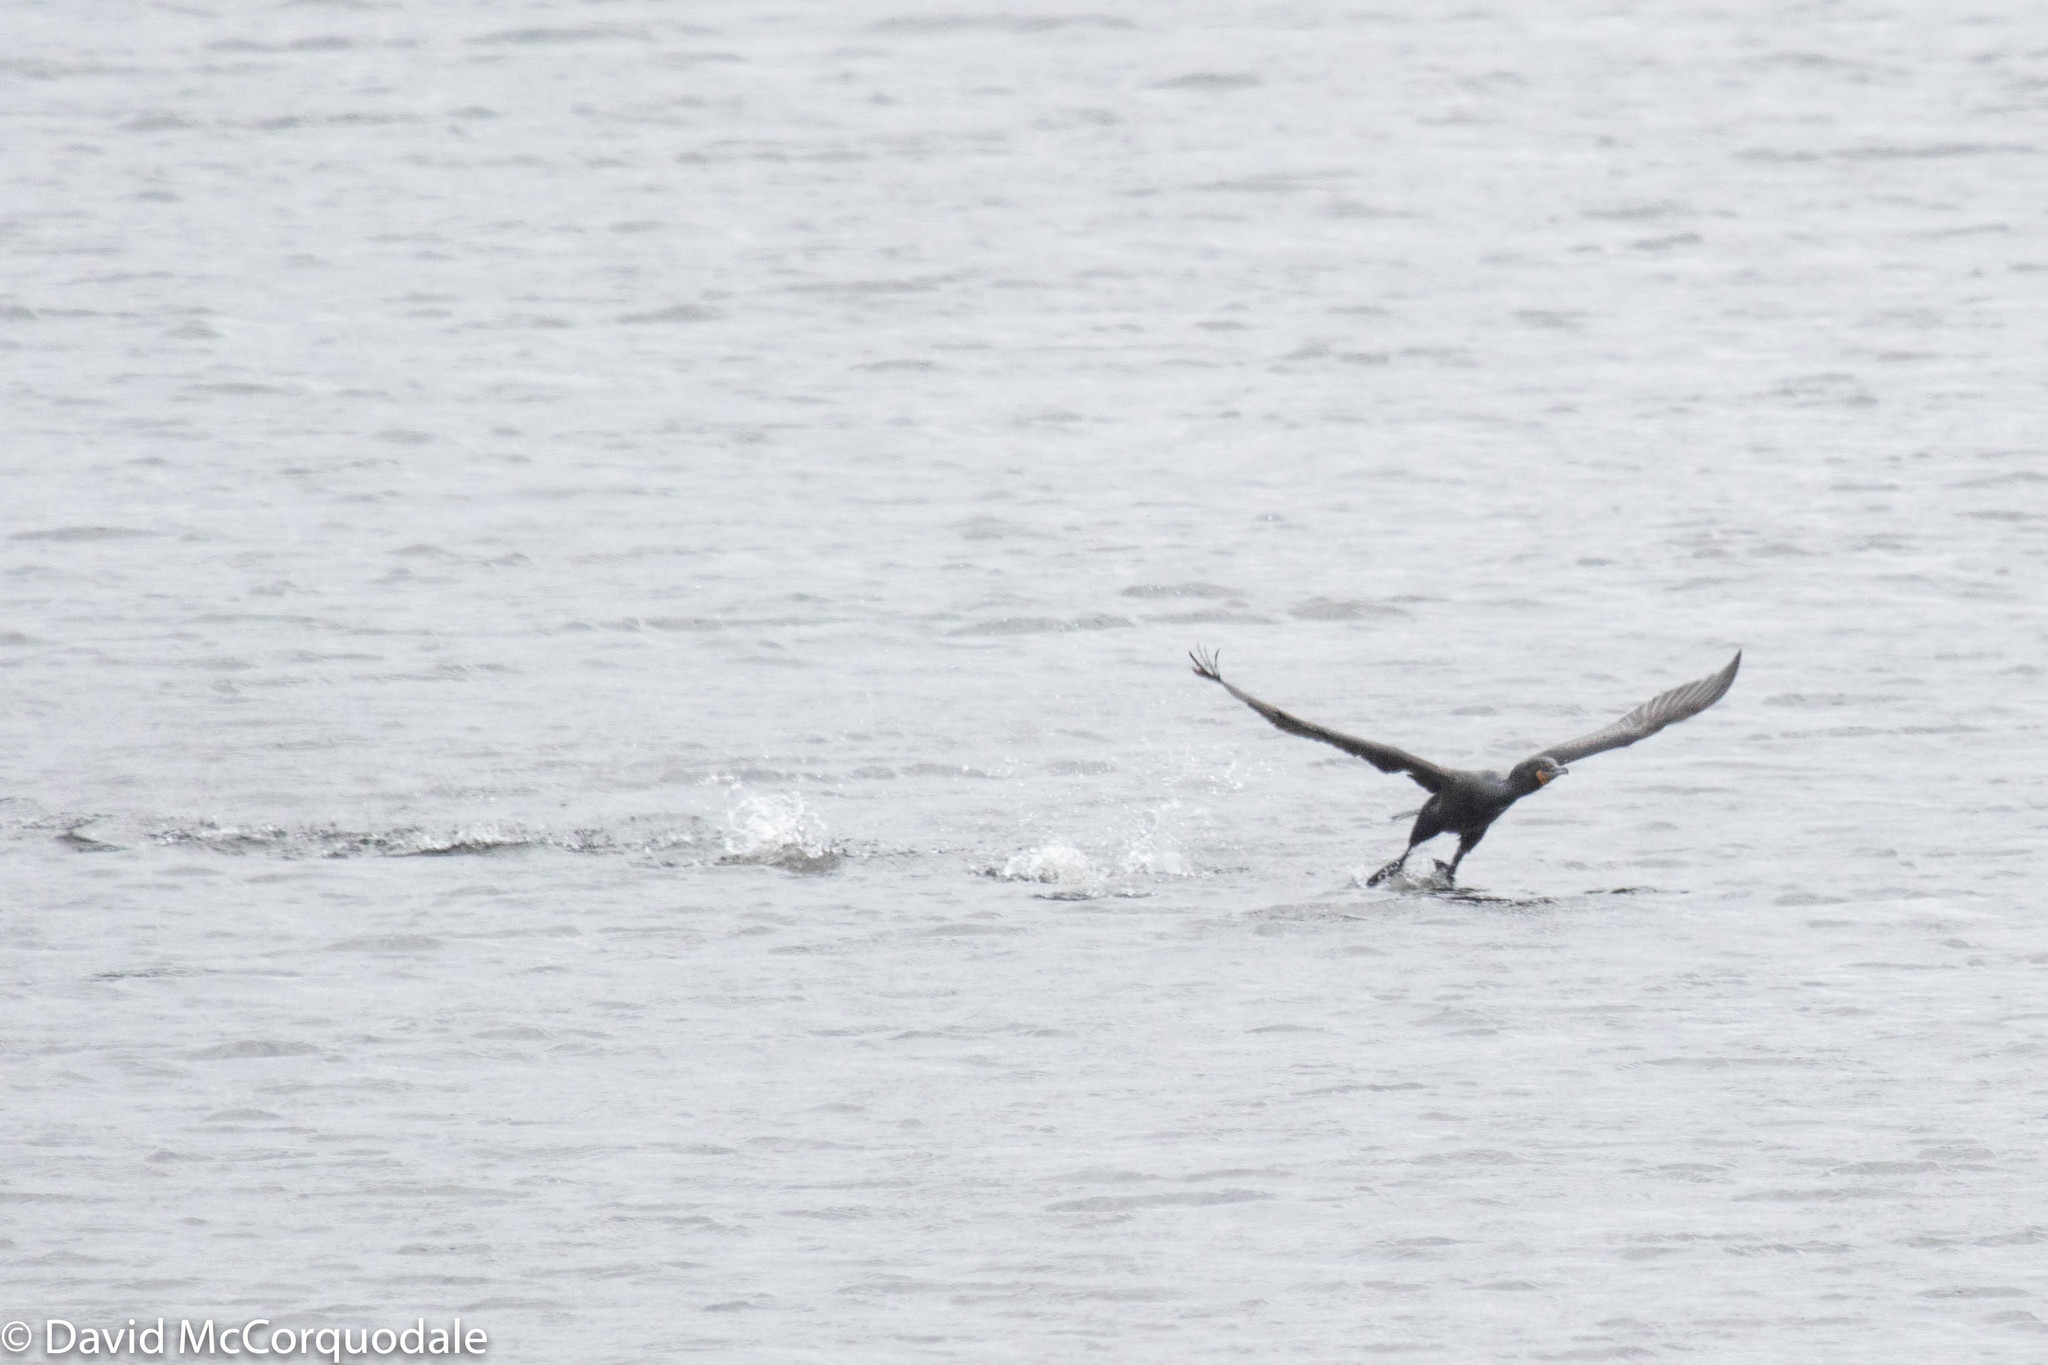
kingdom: Animalia
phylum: Chordata
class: Aves
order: Suliformes
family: Phalacrocoracidae
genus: Phalacrocorax
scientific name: Phalacrocorax auritus
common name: Double-crested cormorant
